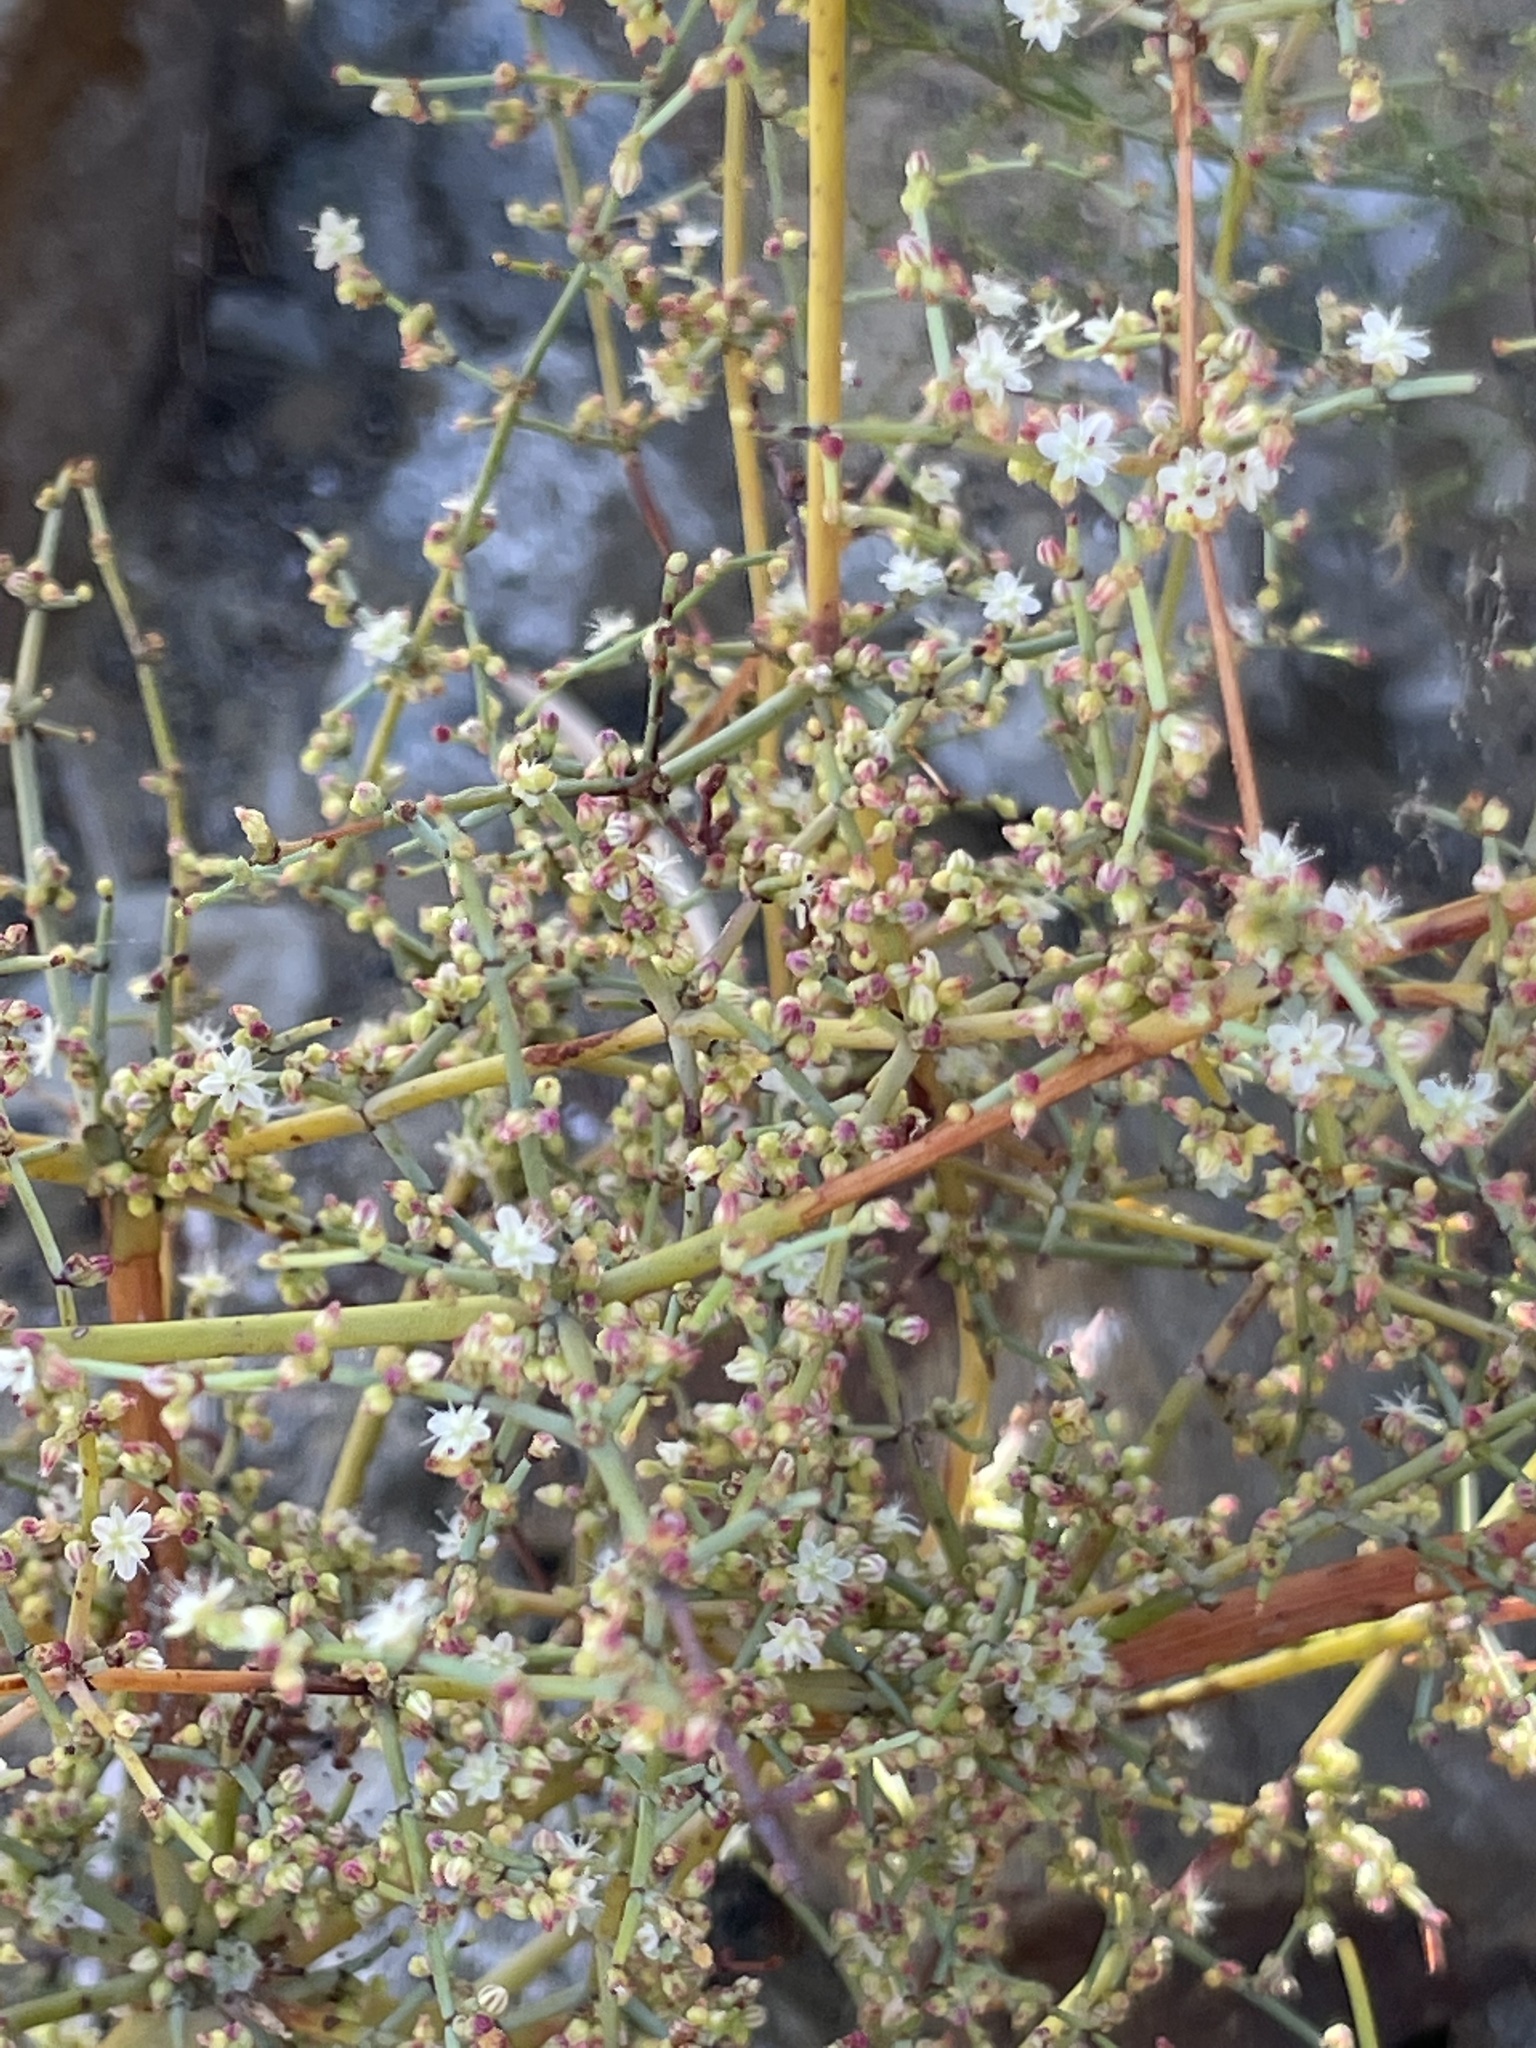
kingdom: Plantae
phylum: Tracheophyta
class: Magnoliopsida
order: Caryophyllales
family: Polygonaceae
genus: Eriogonum
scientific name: Eriogonum intricatum
